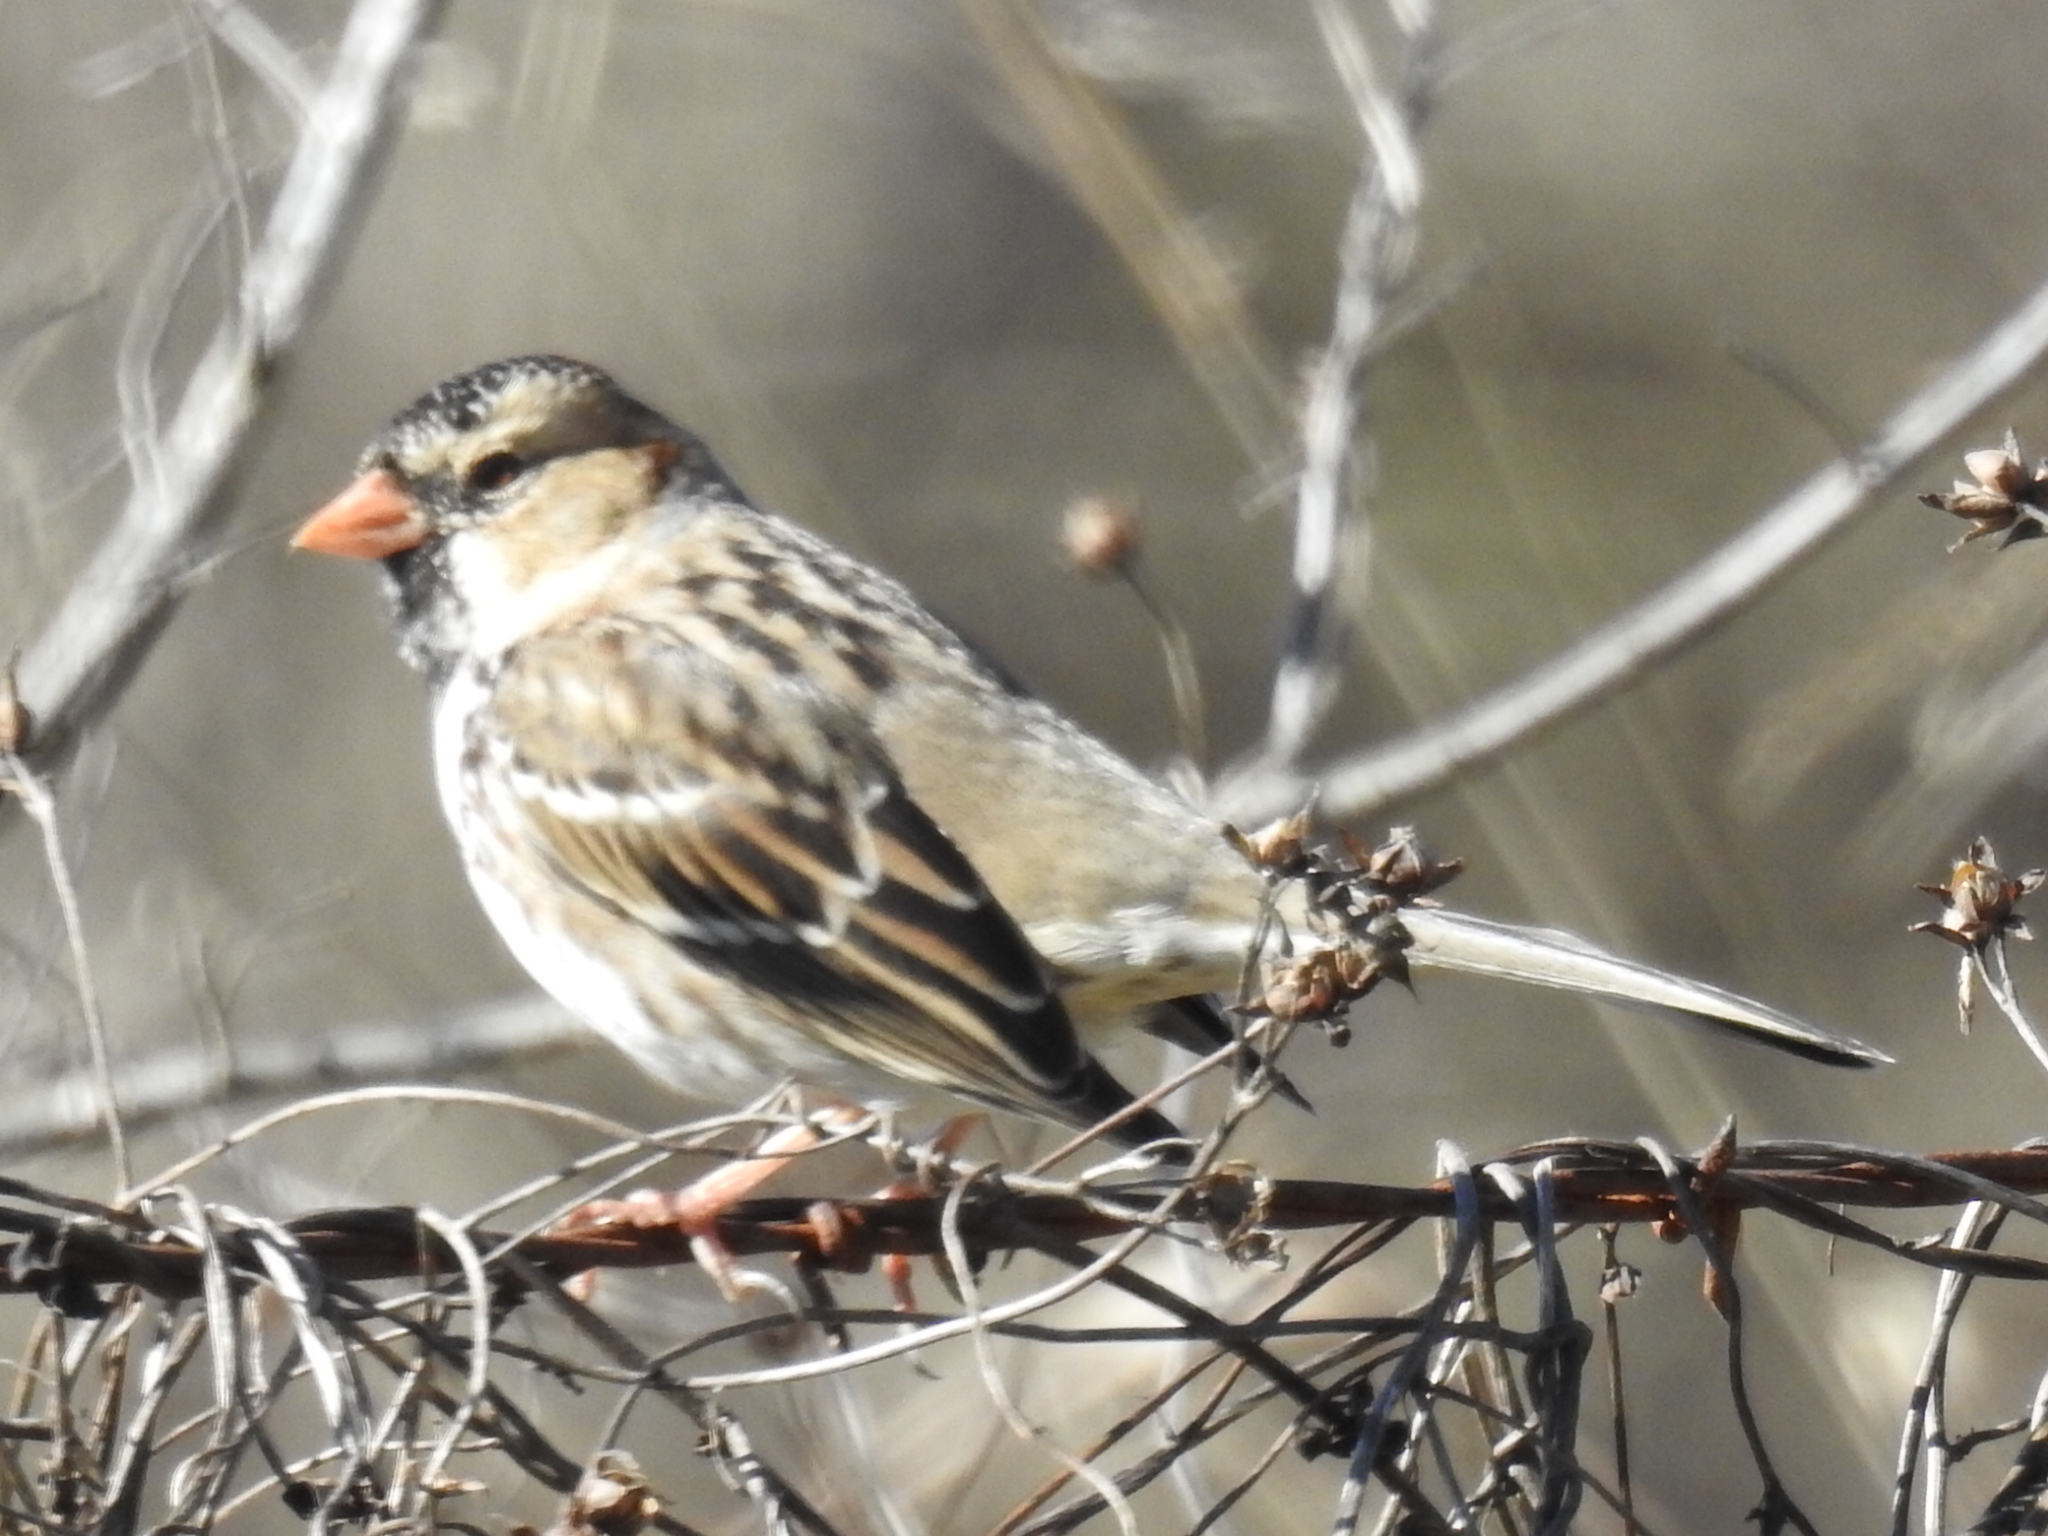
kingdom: Animalia
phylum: Chordata
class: Aves
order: Passeriformes
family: Passerellidae
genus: Zonotrichia
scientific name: Zonotrichia querula
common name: Harris's sparrow
